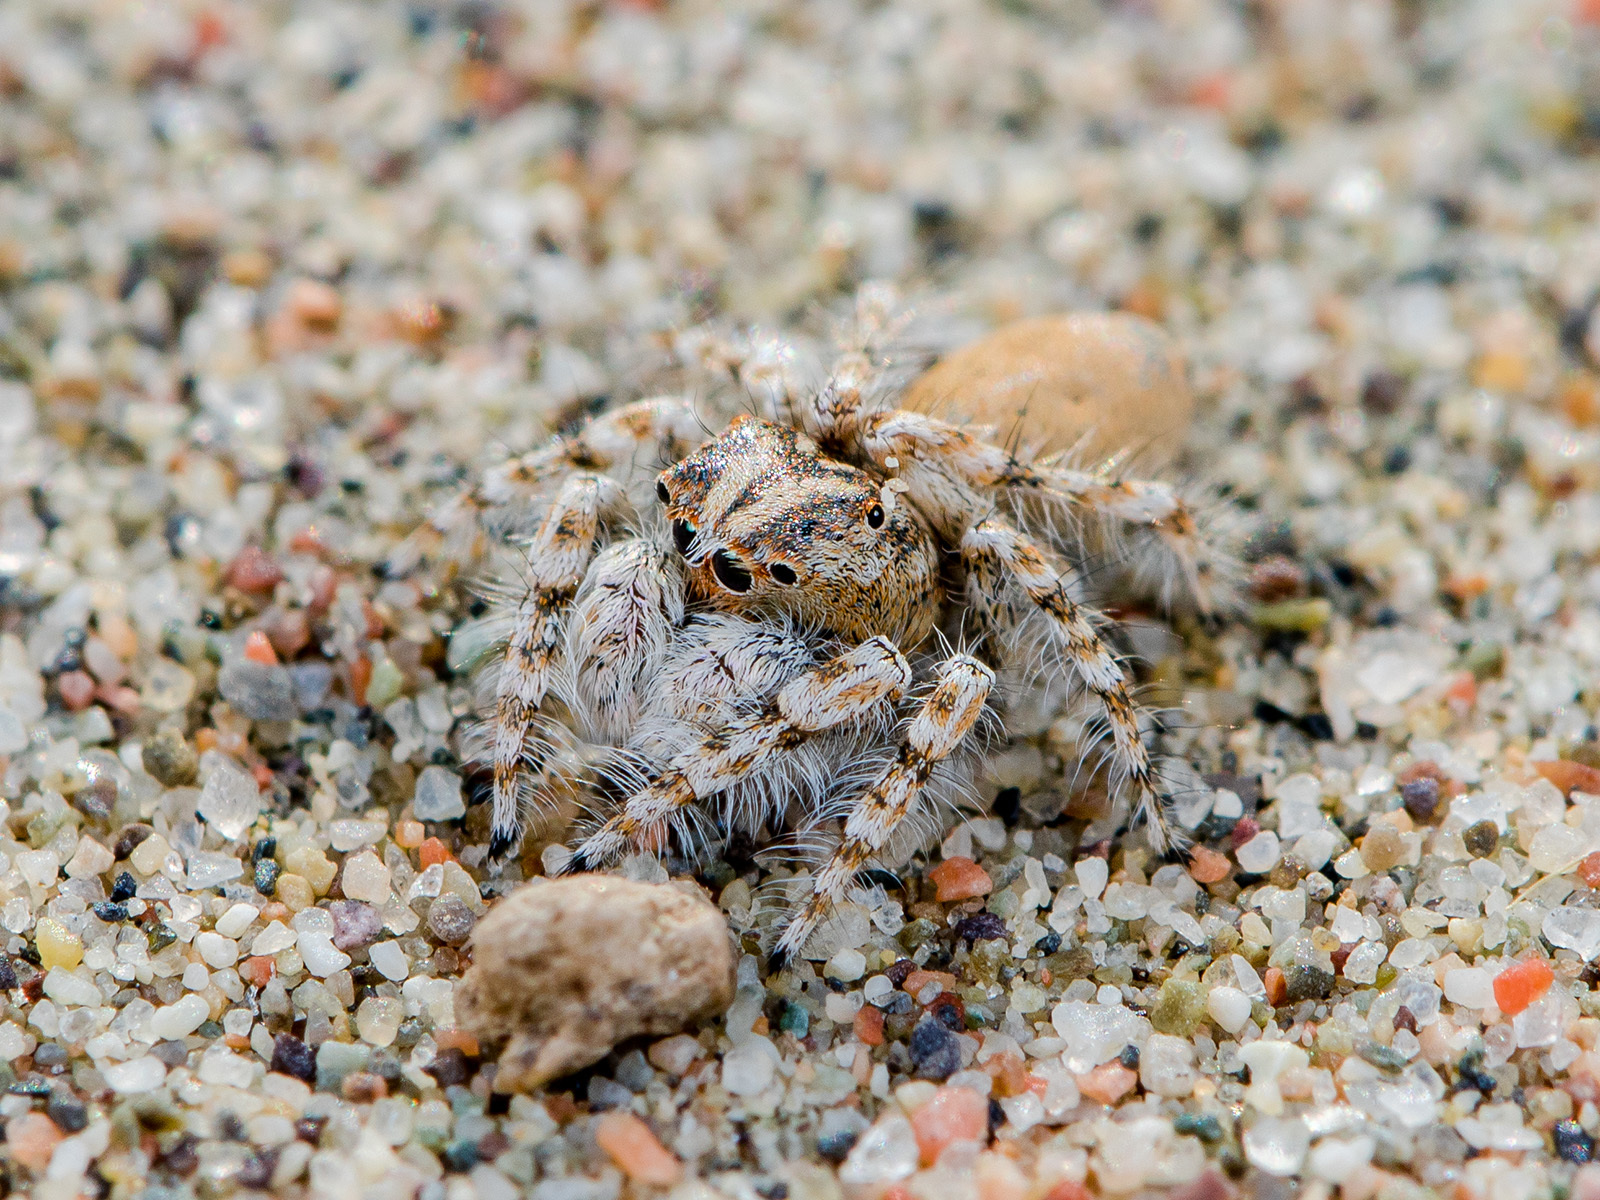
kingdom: Animalia
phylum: Arthropoda
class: Arachnida
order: Araneae
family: Salticidae
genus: Yllenus
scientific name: Yllenus uiguricus
